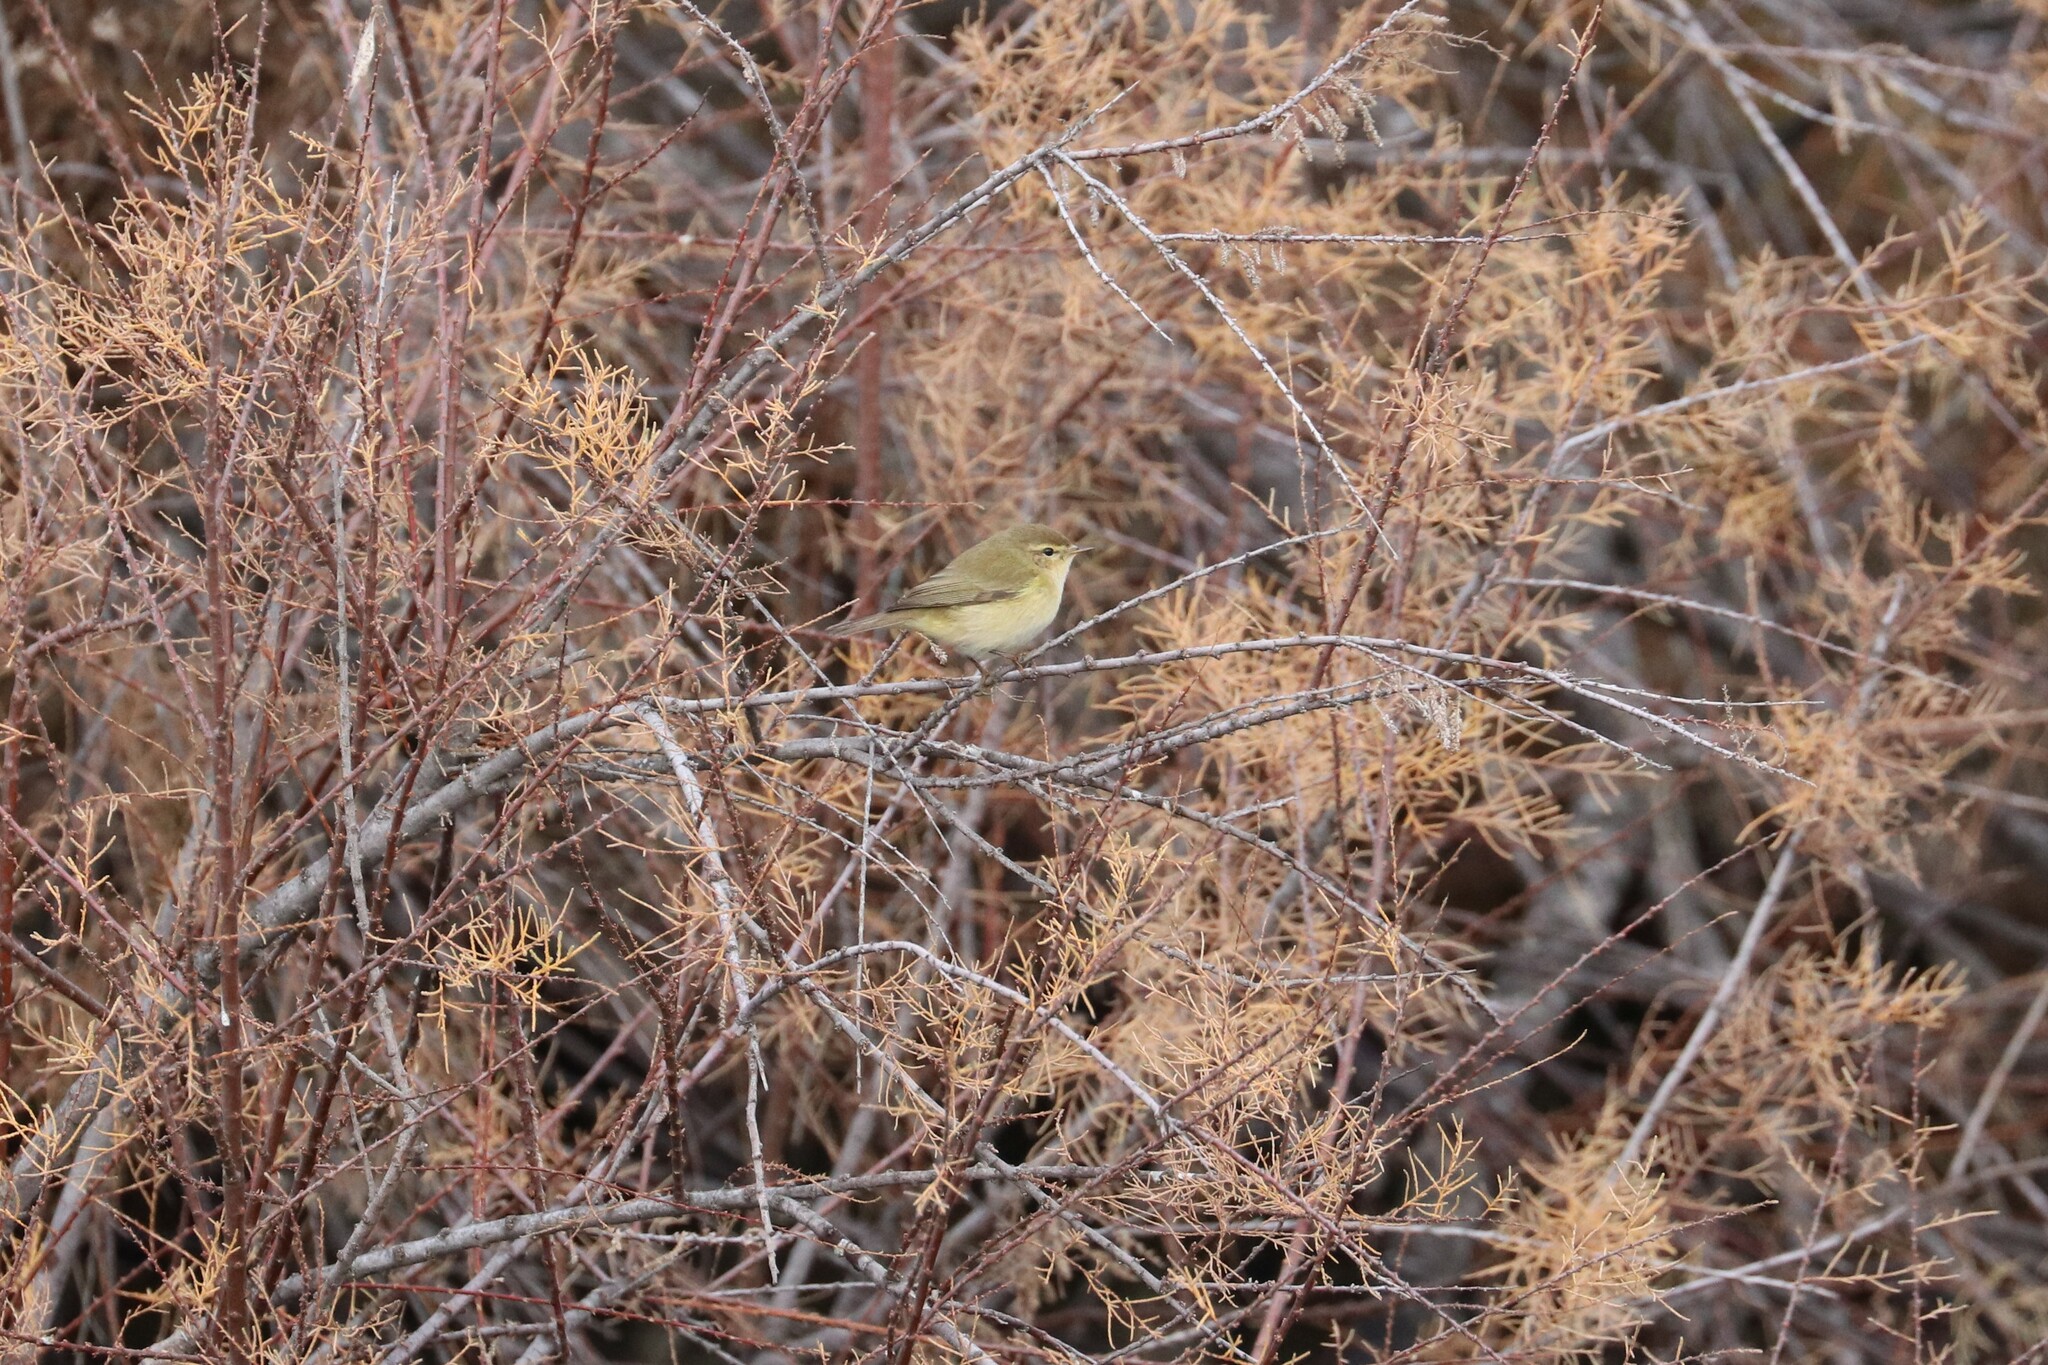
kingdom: Animalia
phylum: Chordata
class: Aves
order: Passeriformes
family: Phylloscopidae
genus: Phylloscopus
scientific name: Phylloscopus collybita
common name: Common chiffchaff
